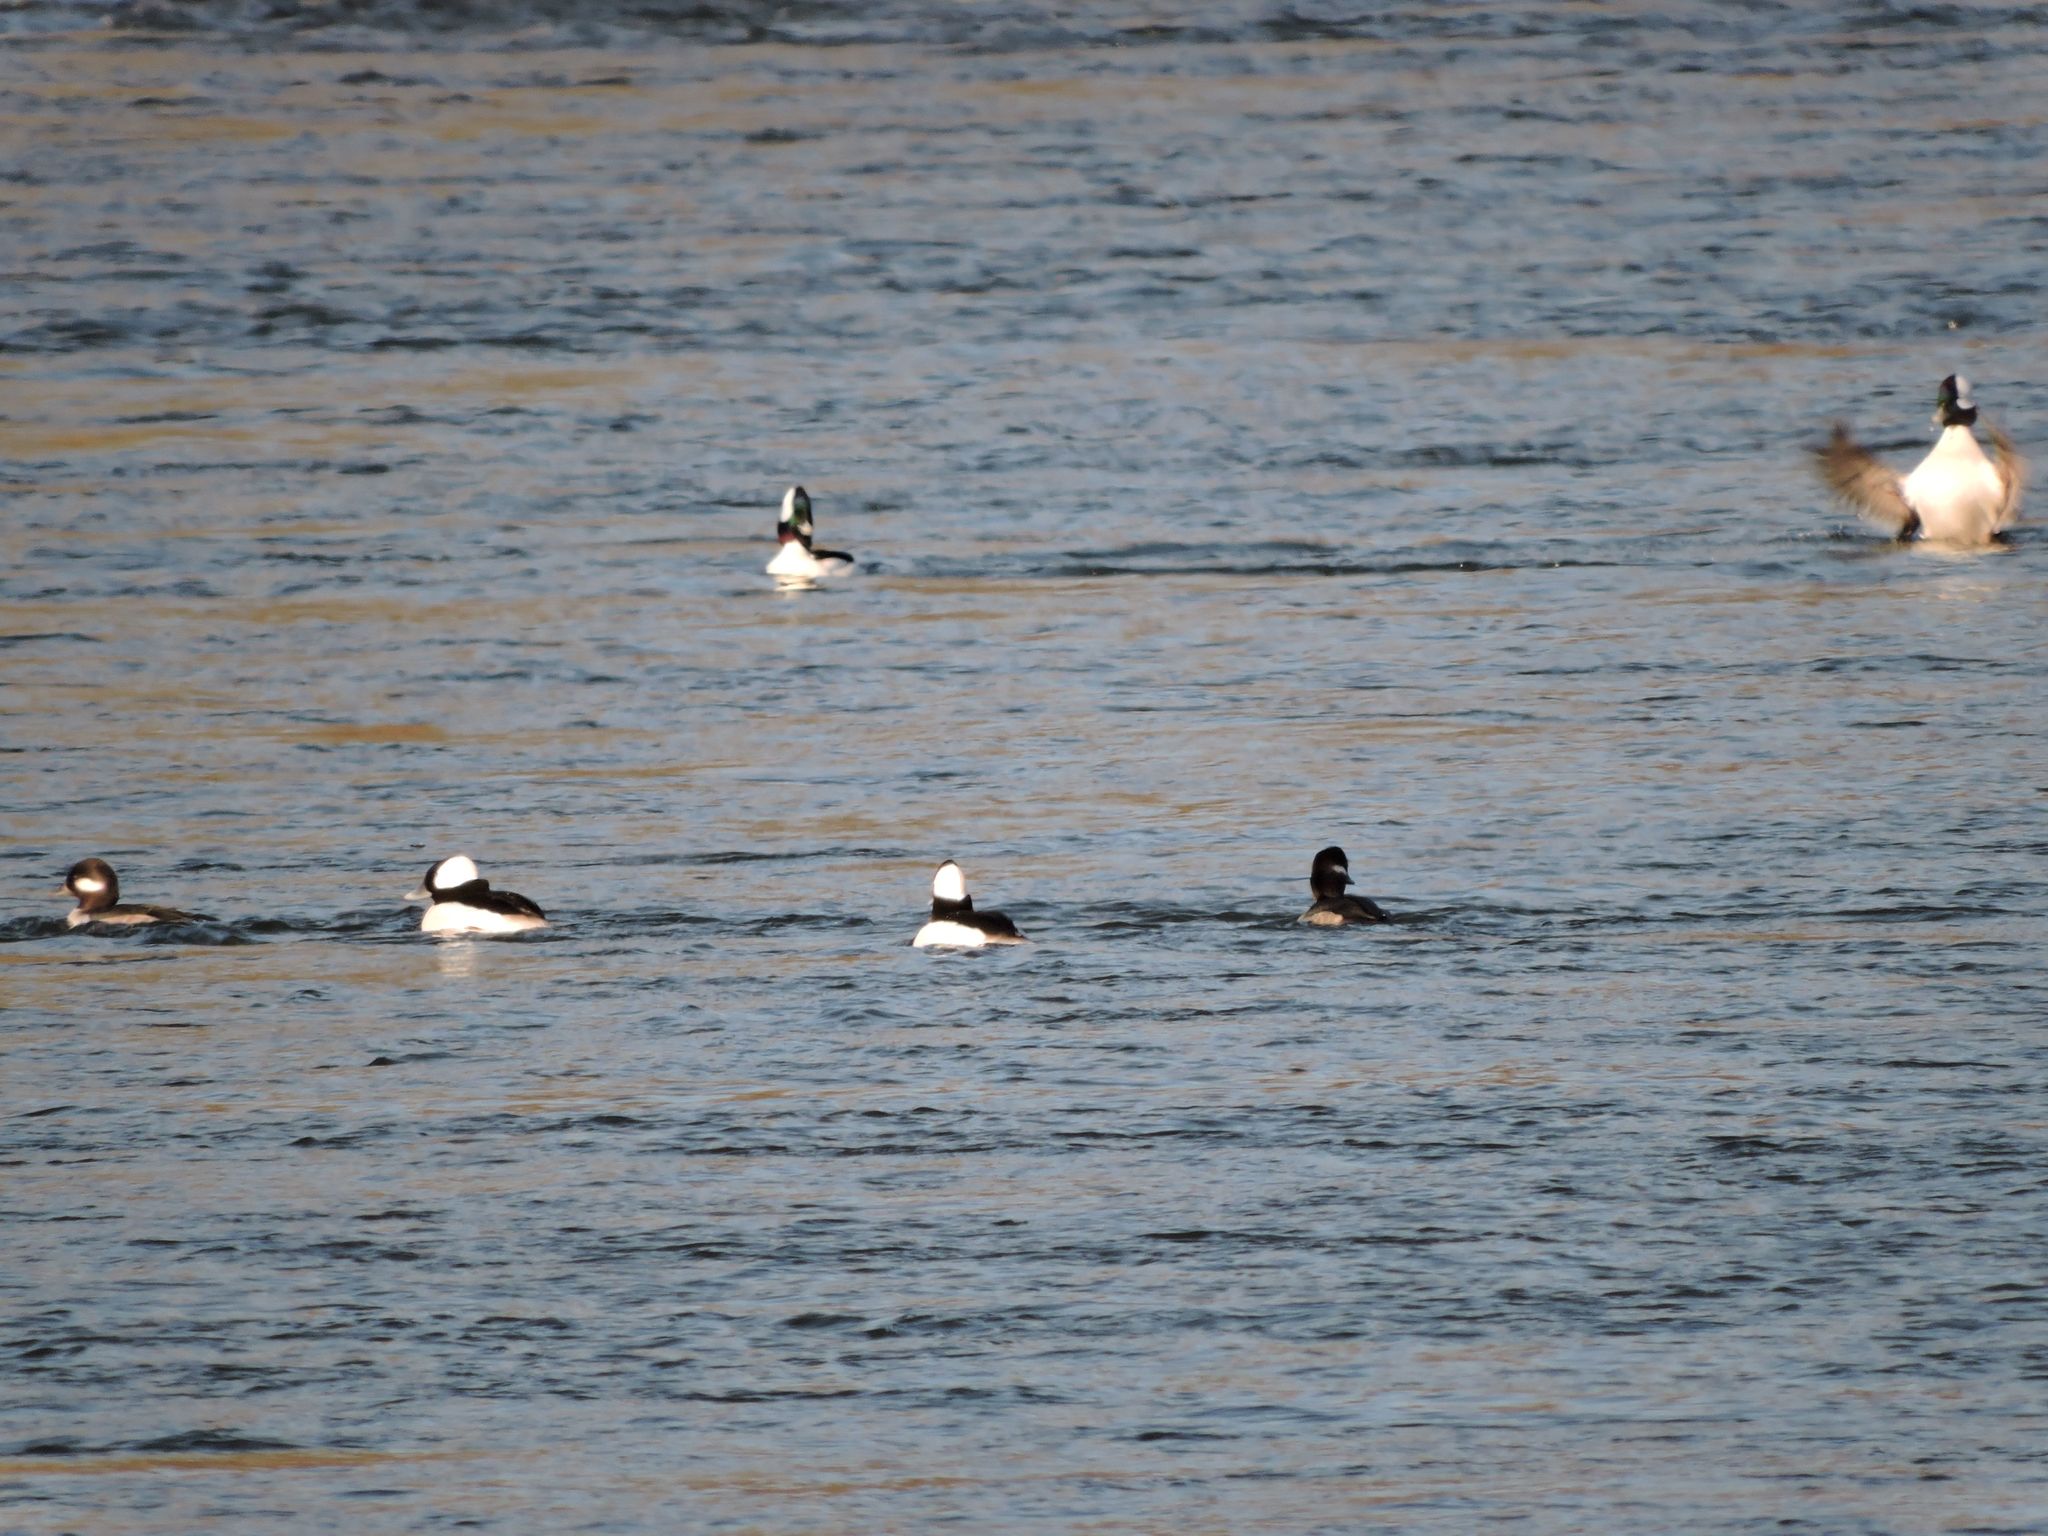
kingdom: Animalia
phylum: Chordata
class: Aves
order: Anseriformes
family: Anatidae
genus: Bucephala
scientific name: Bucephala albeola
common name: Bufflehead
